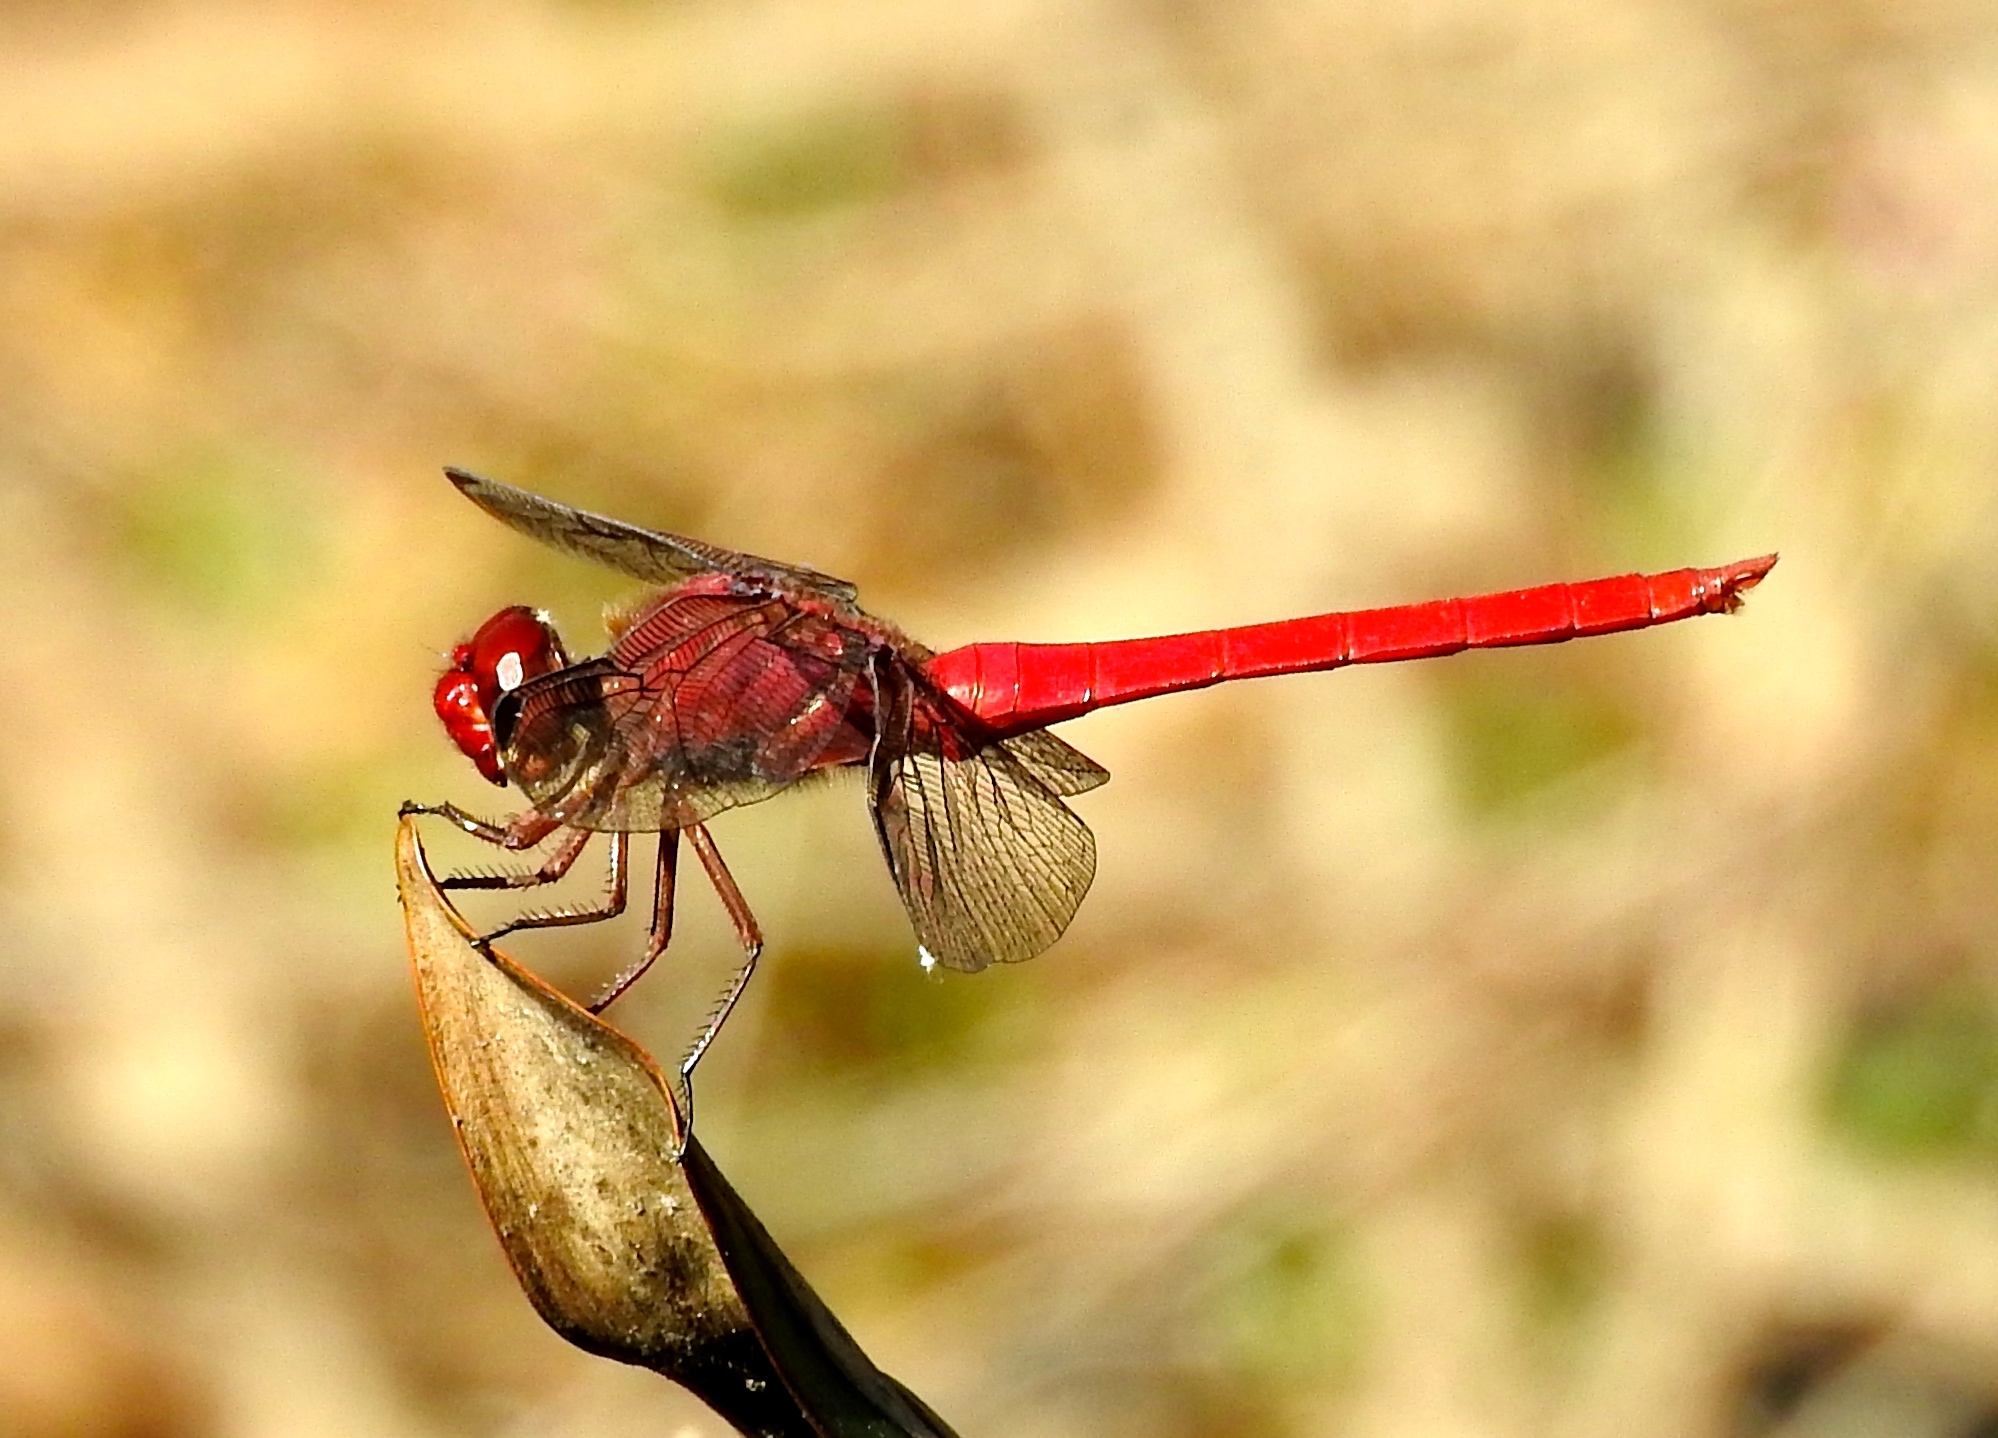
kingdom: Animalia
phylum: Arthropoda
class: Insecta
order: Odonata
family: Libellulidae
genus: Orthemis
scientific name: Orthemis schmidti
